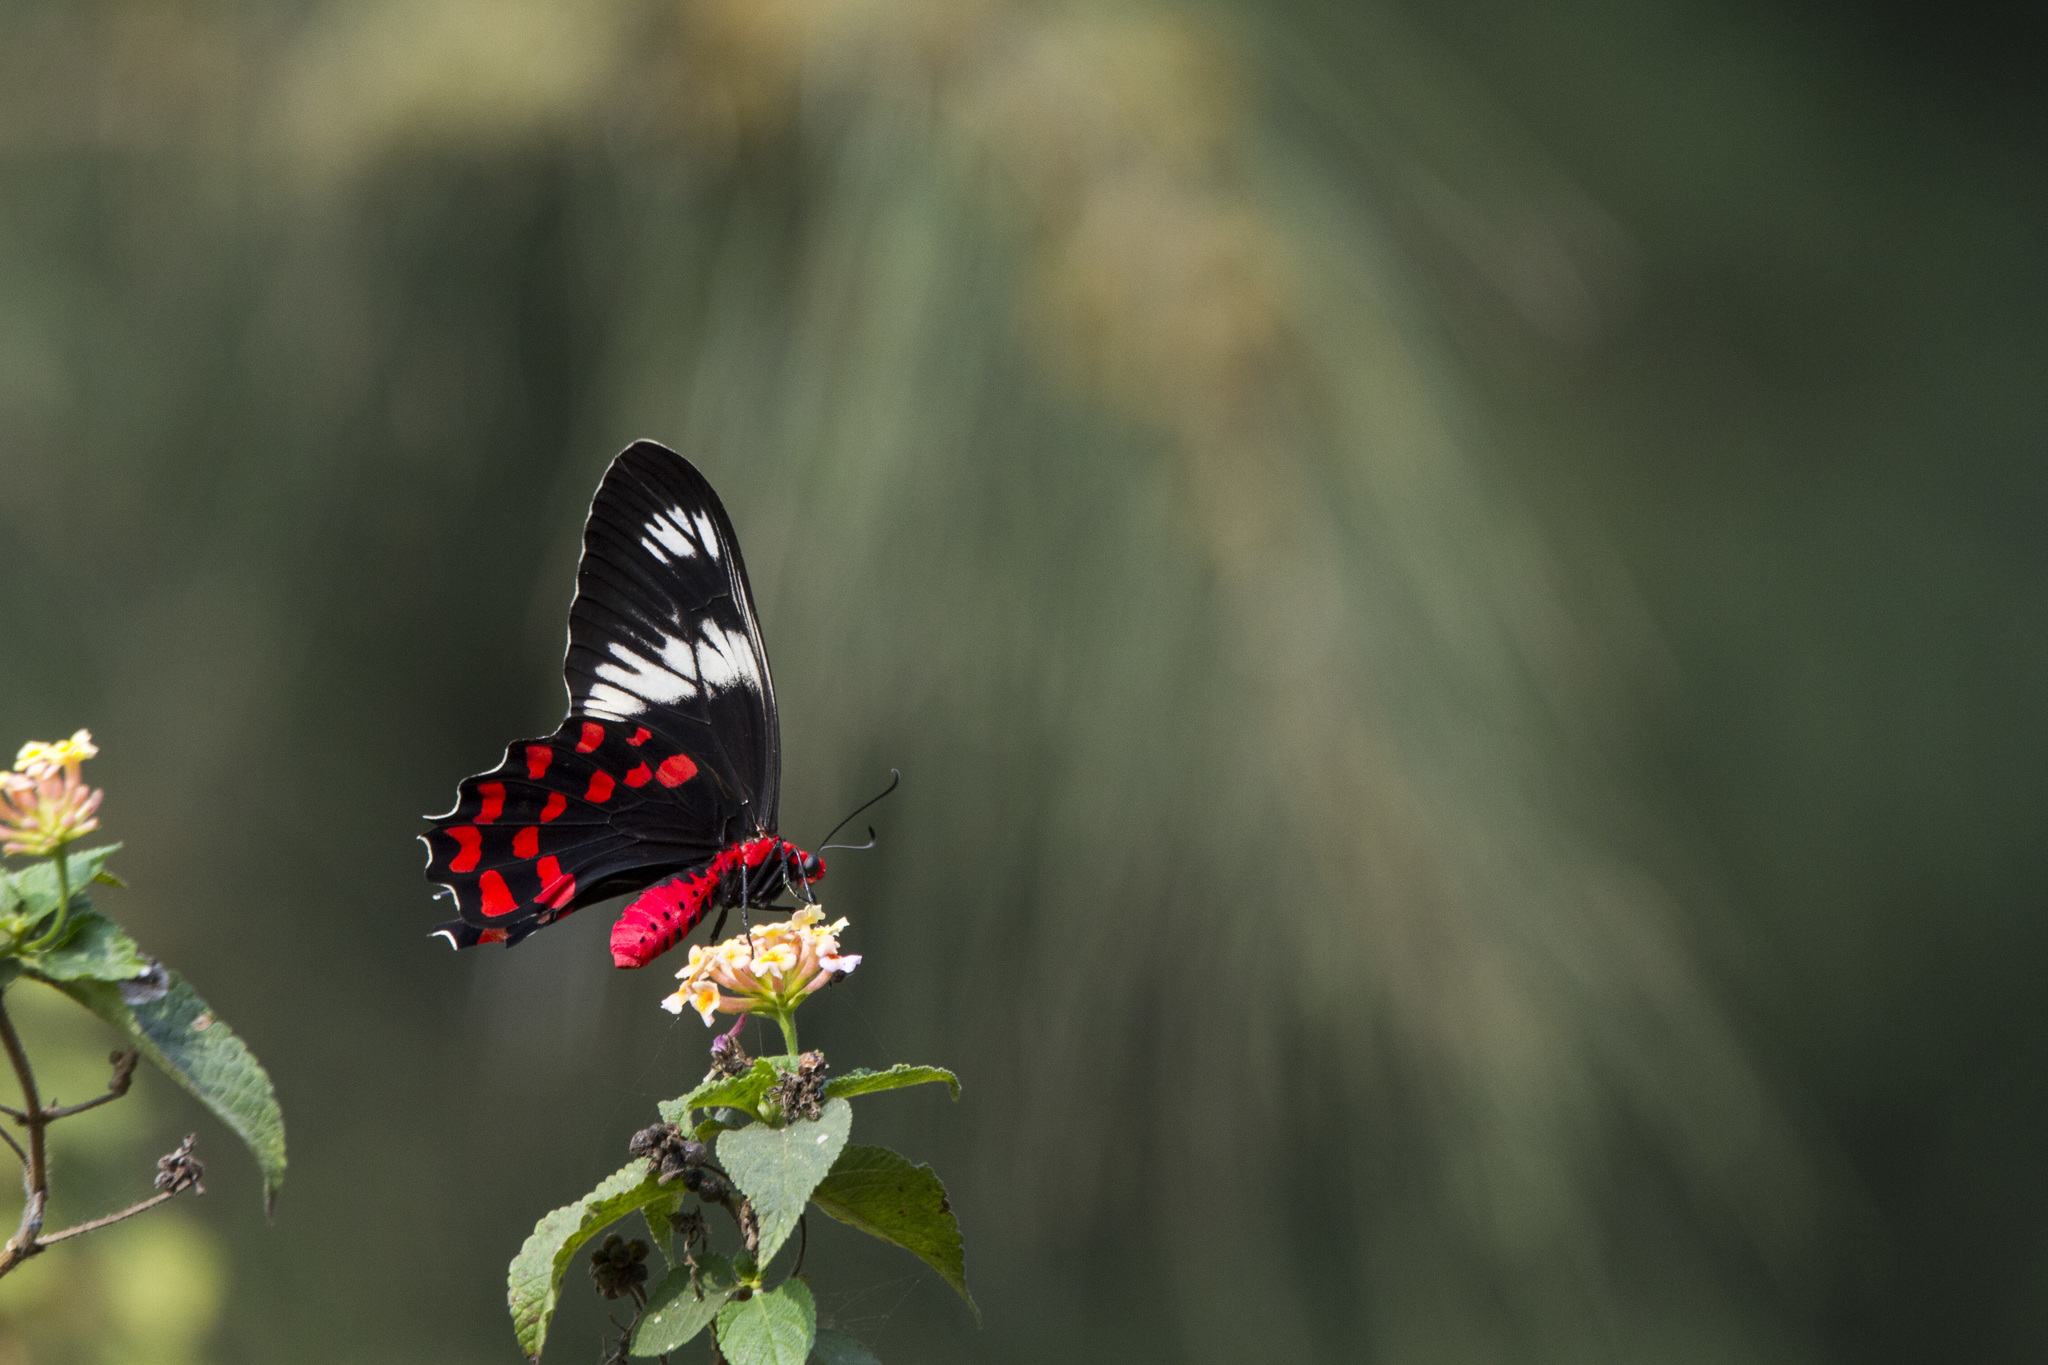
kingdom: Animalia
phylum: Arthropoda
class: Insecta
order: Lepidoptera
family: Papilionidae
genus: Pachliopta
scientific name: Pachliopta hector
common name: Crimson rose
